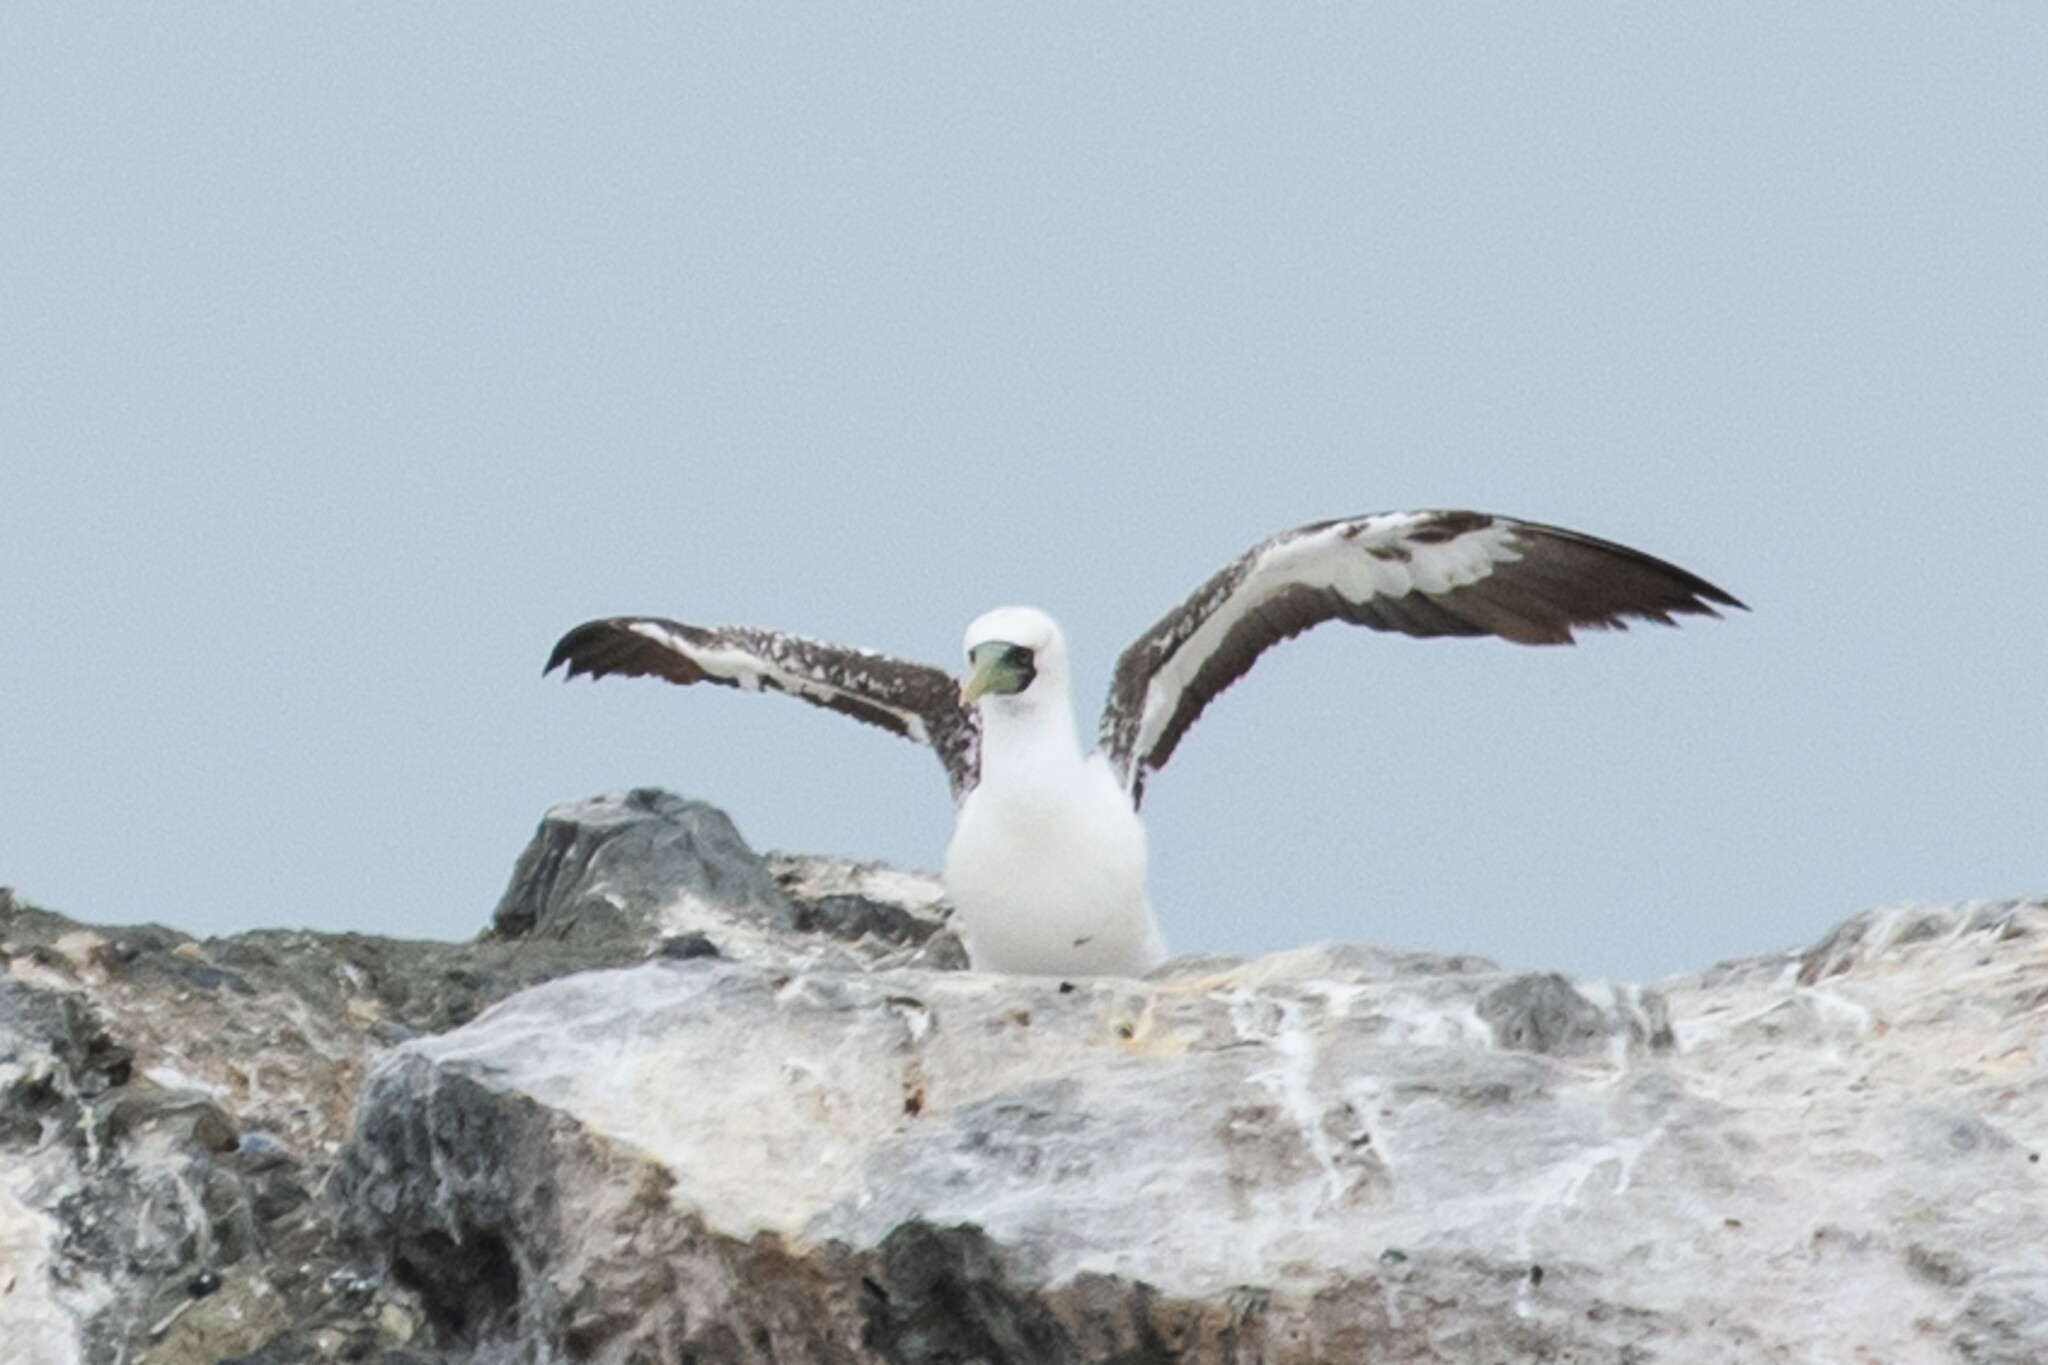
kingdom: Animalia
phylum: Chordata
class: Aves
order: Suliformes
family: Sulidae
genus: Sula
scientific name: Sula dactylatra
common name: Masked booby
